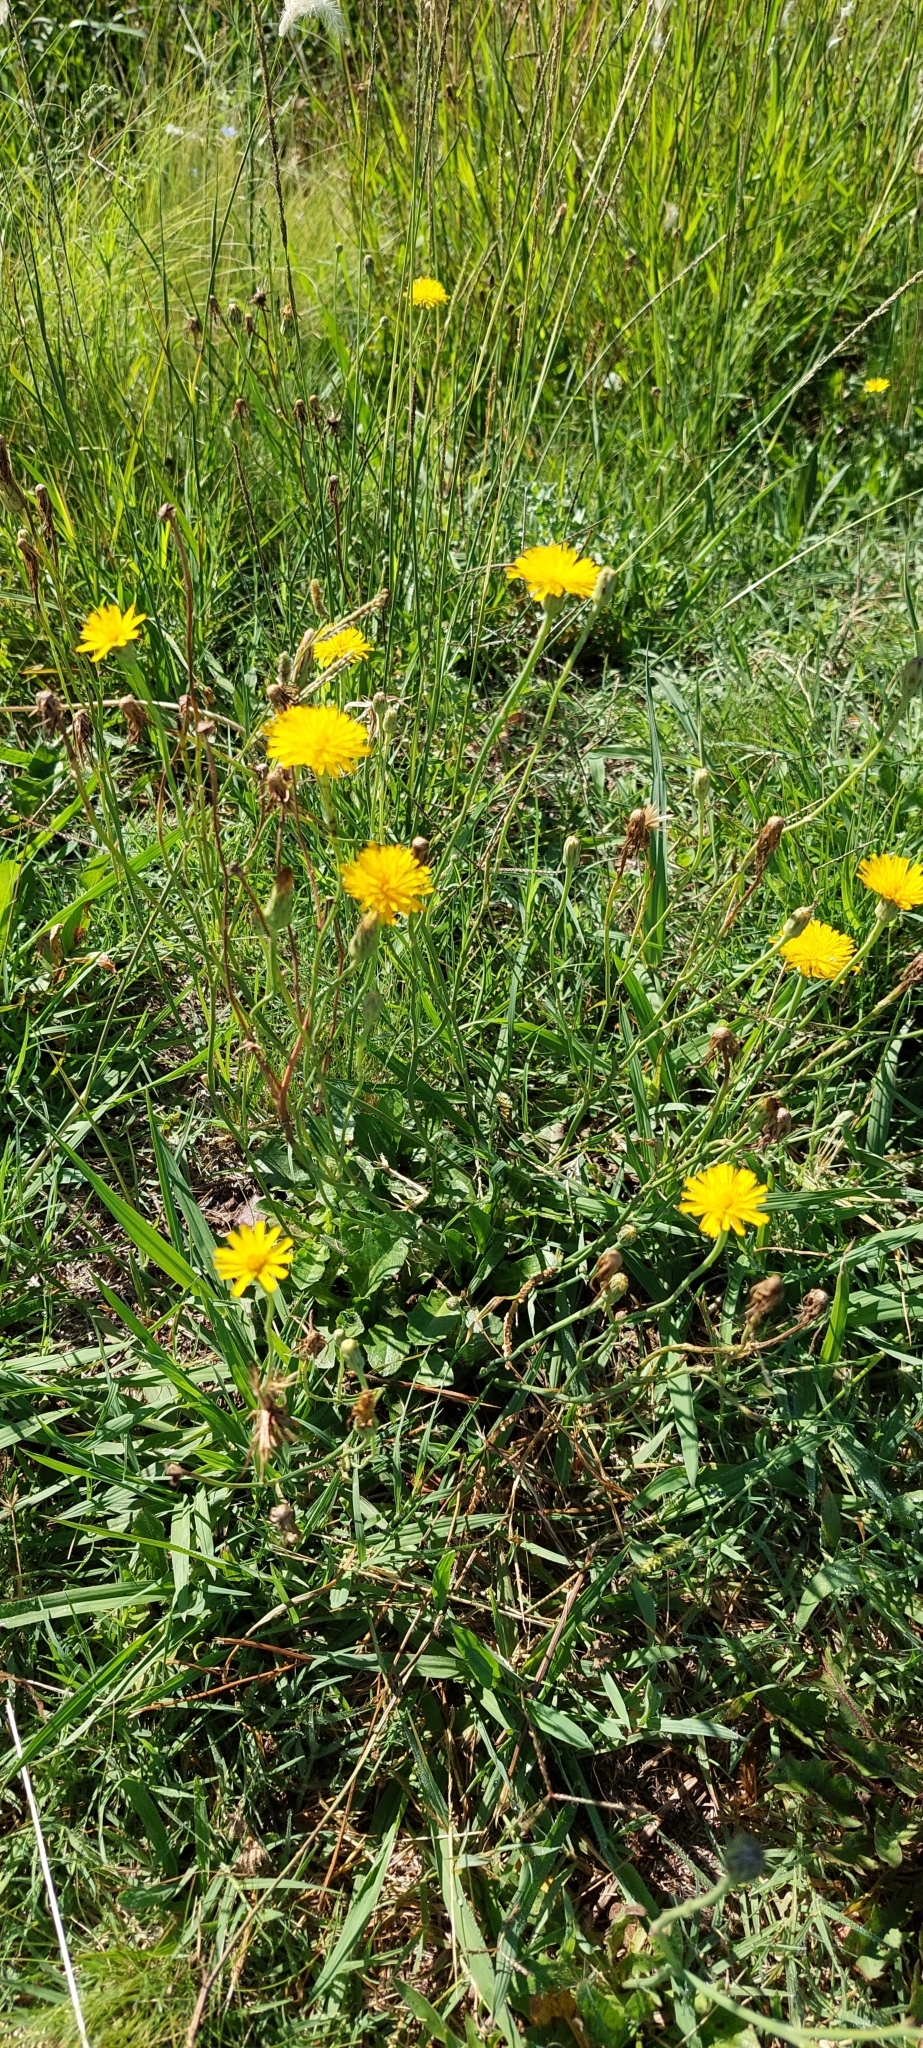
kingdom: Plantae
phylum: Tracheophyta
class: Magnoliopsida
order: Asterales
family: Asteraceae
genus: Hypochaeris
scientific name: Hypochaeris radicata
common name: Flatweed
